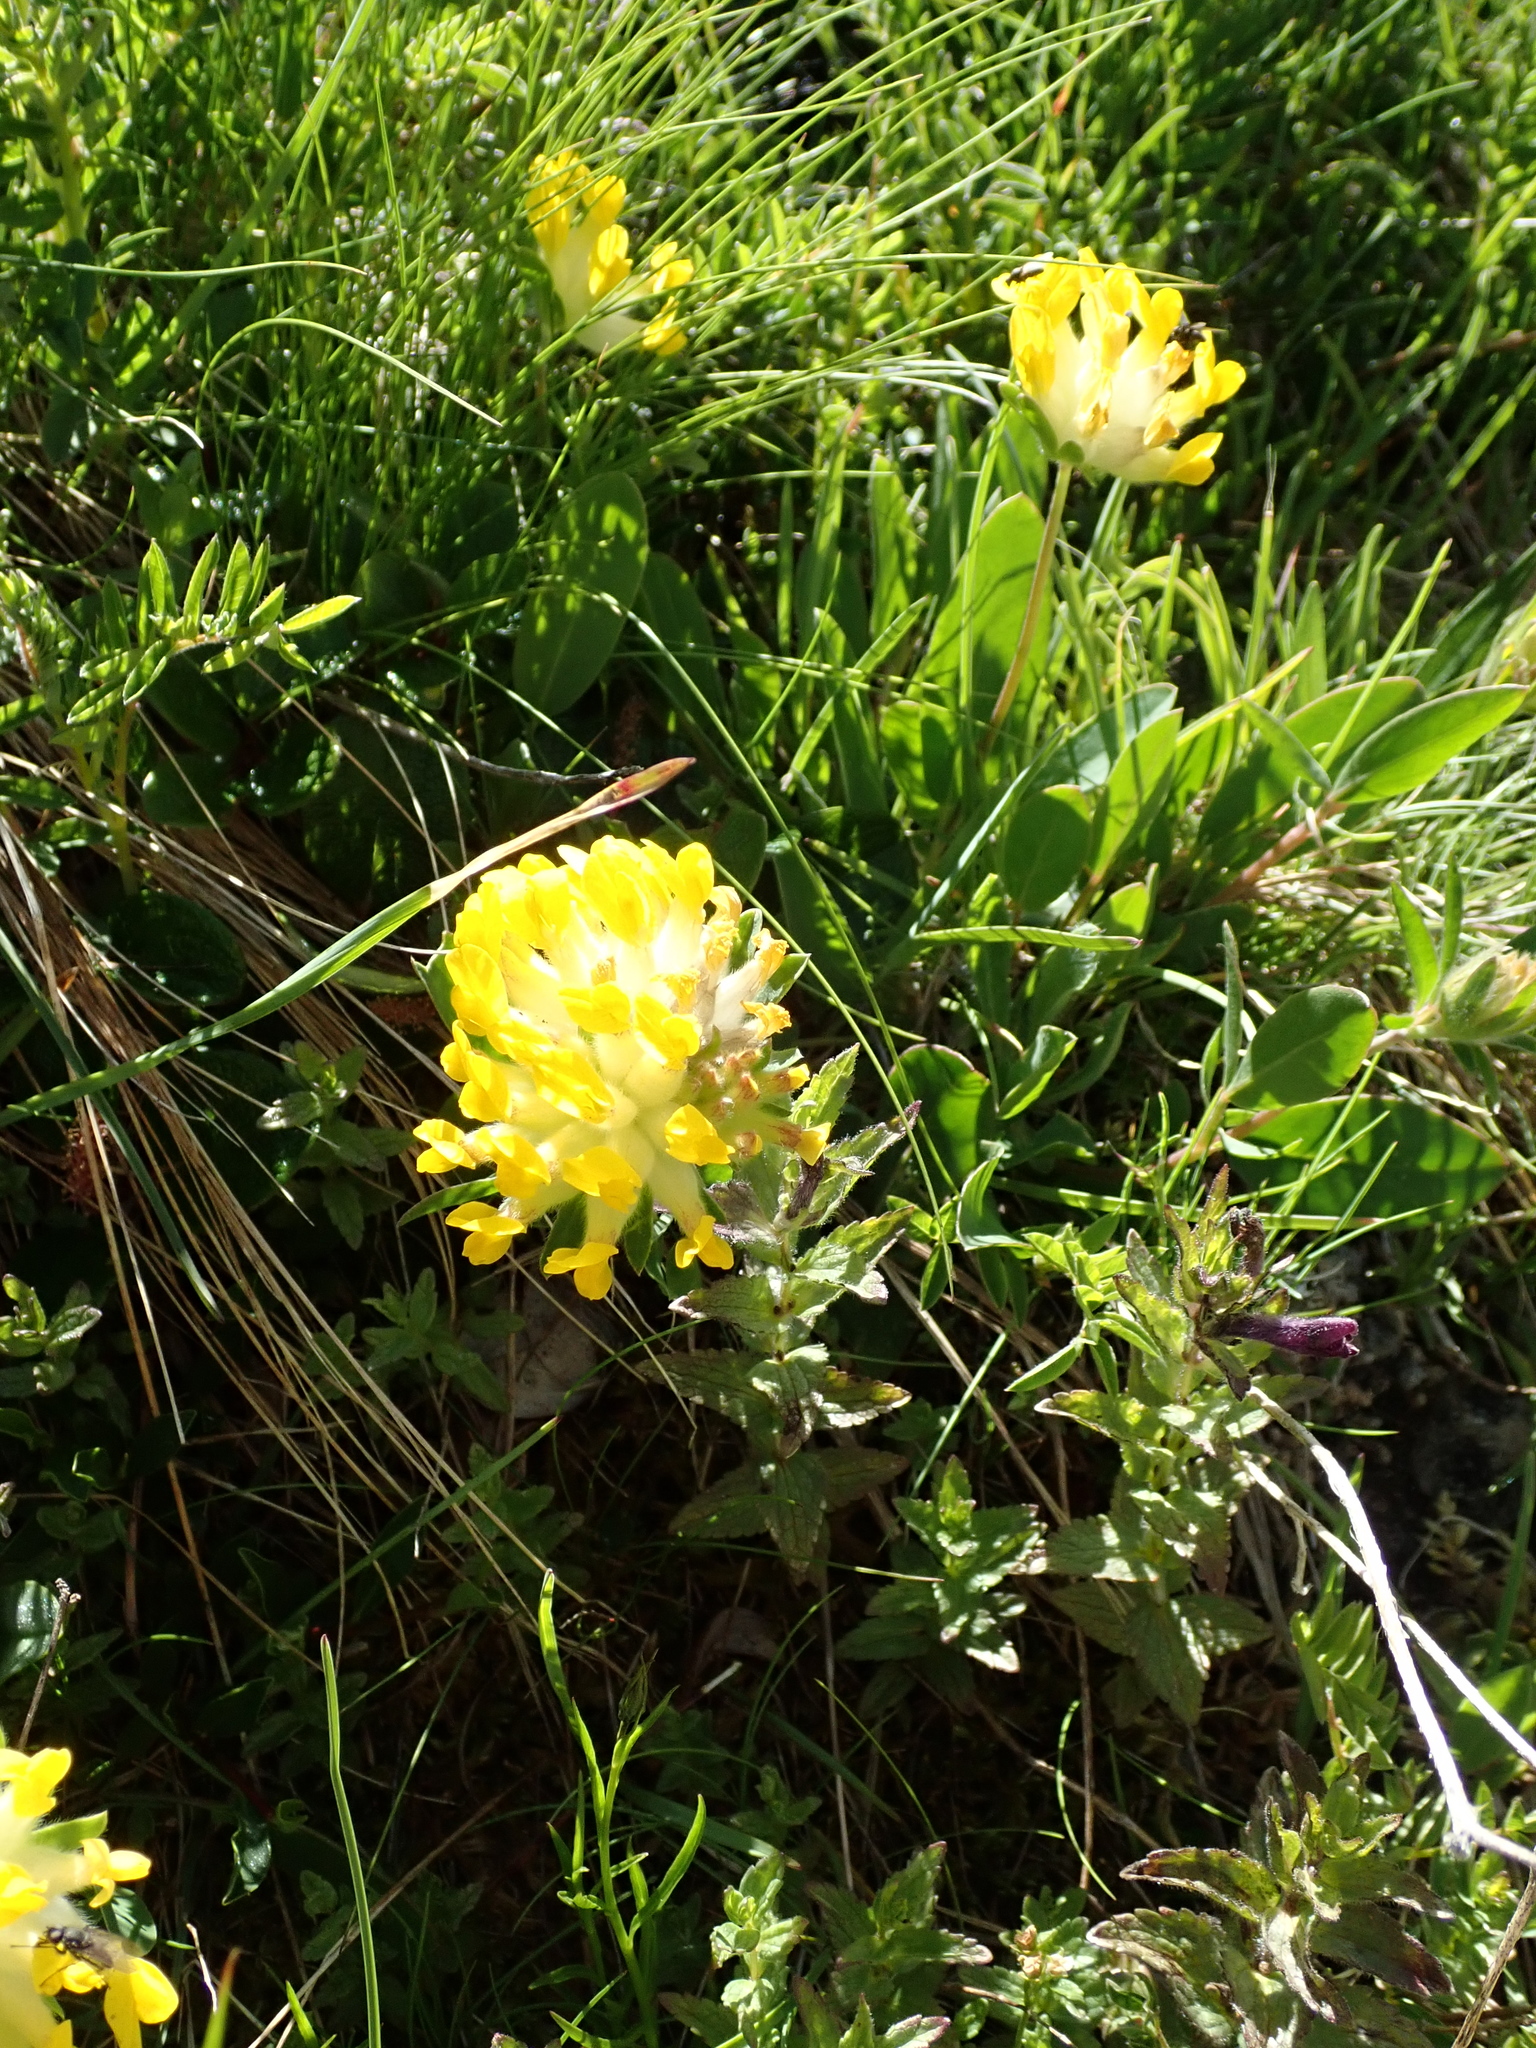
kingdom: Plantae
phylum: Tracheophyta
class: Magnoliopsida
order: Fabales
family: Fabaceae
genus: Anthyllis
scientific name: Anthyllis vulneraria
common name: Kidney vetch
